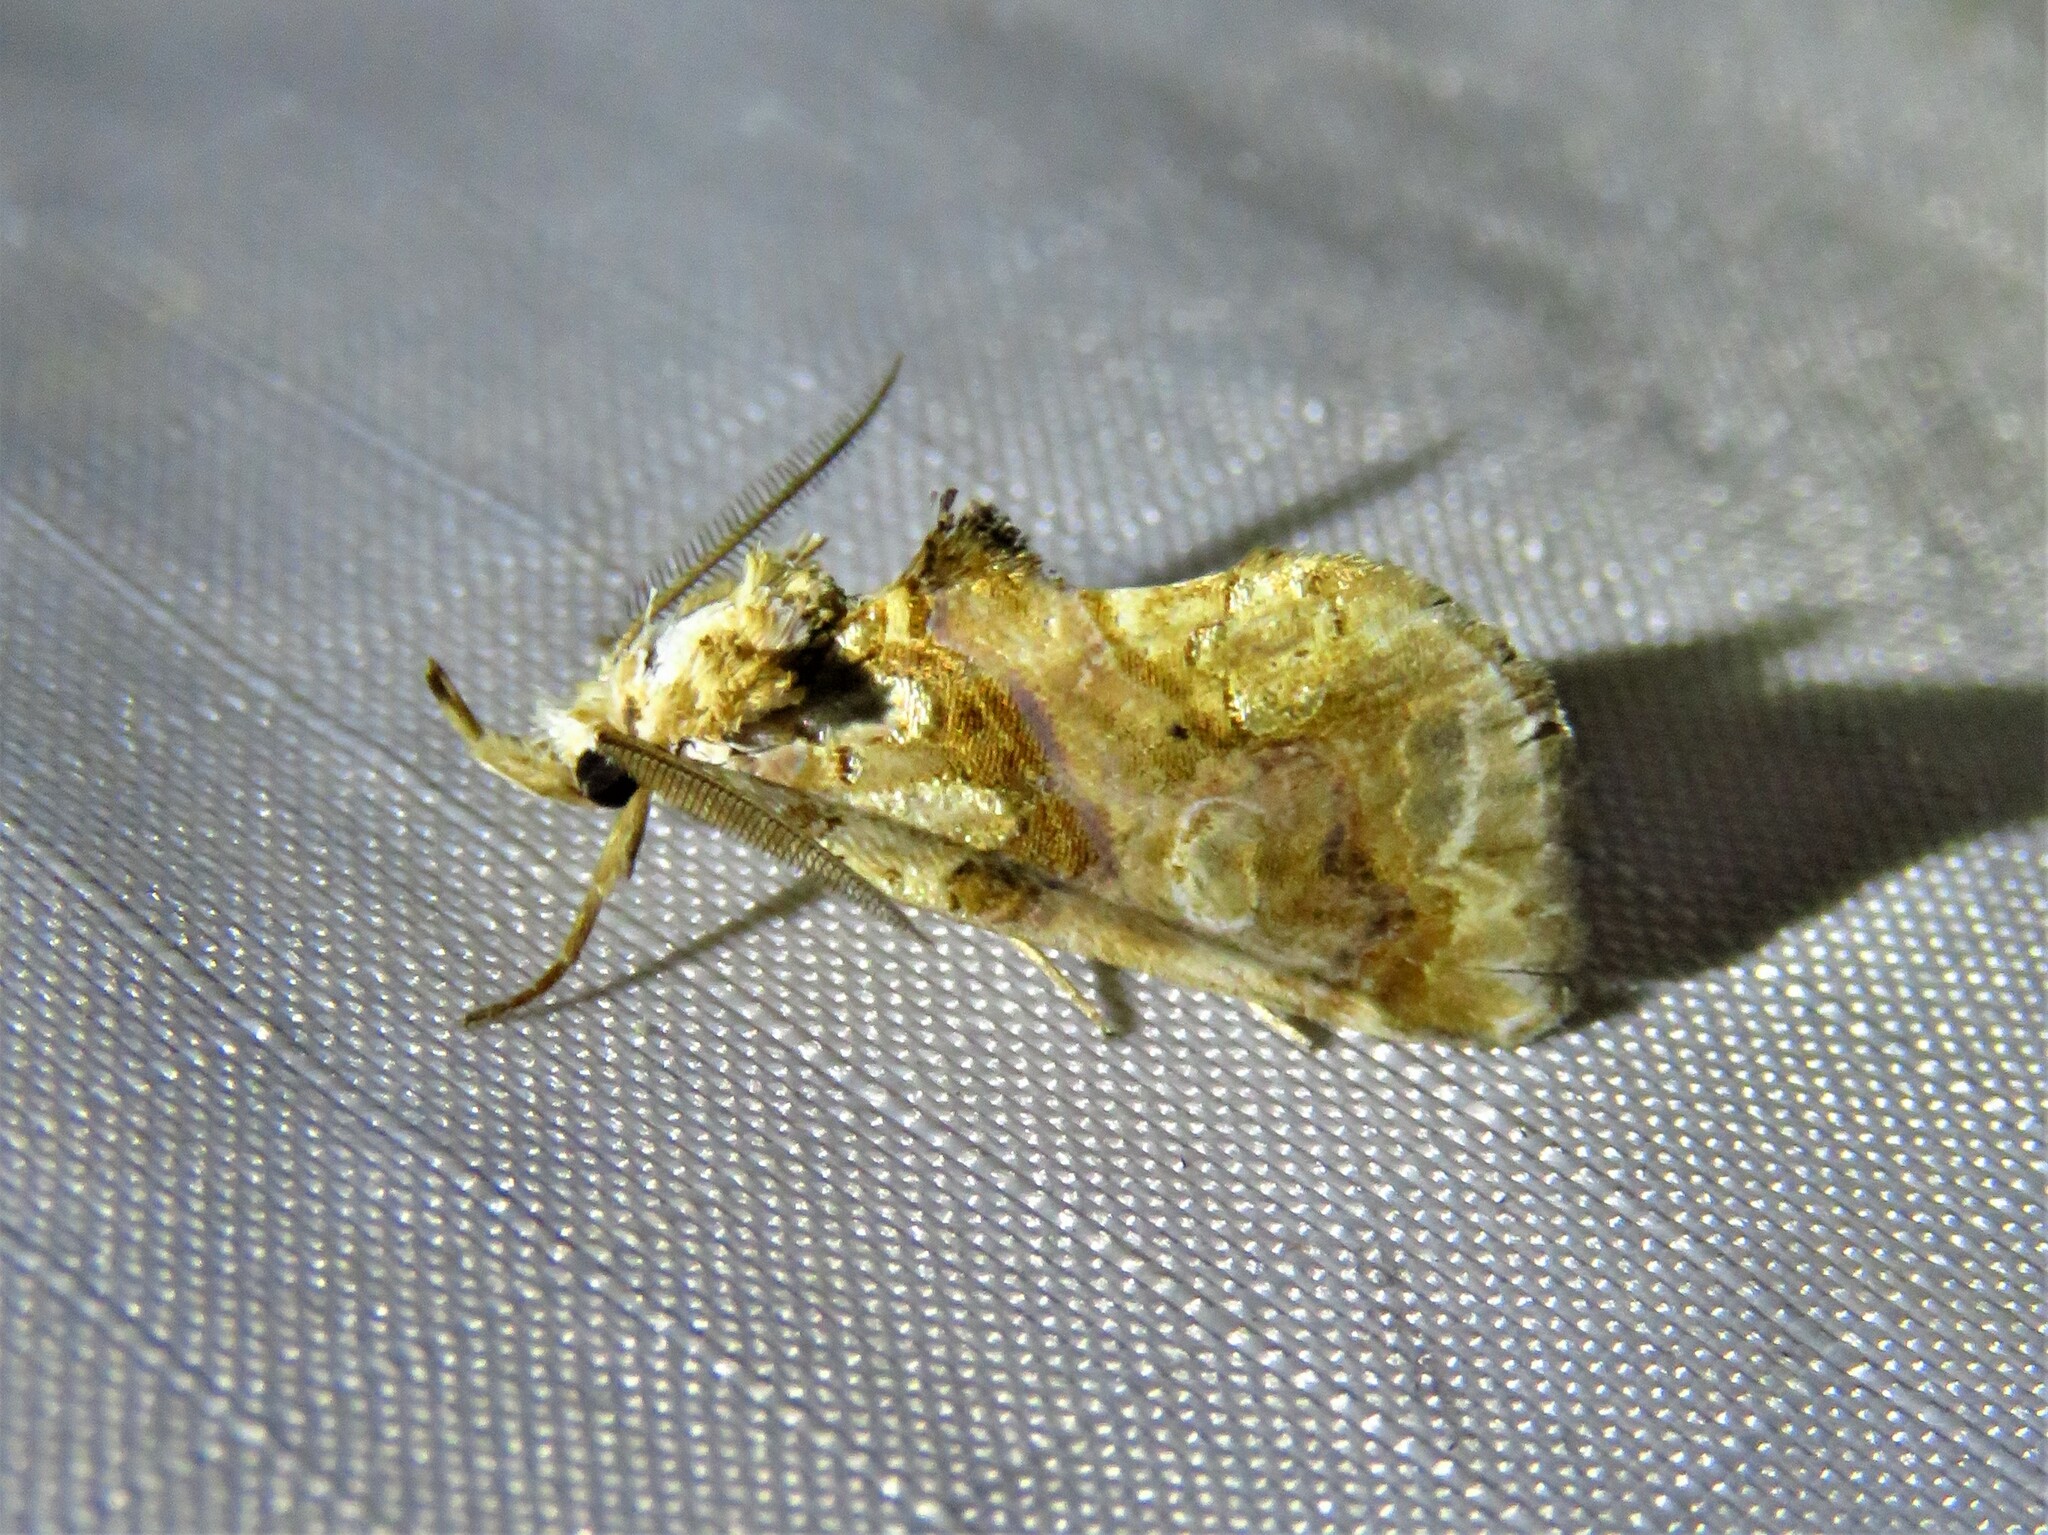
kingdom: Animalia
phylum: Arthropoda
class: Insecta
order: Lepidoptera
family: Erebidae
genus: Plusiodonta
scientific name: Plusiodonta compressipalpis
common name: Moonseed moth
